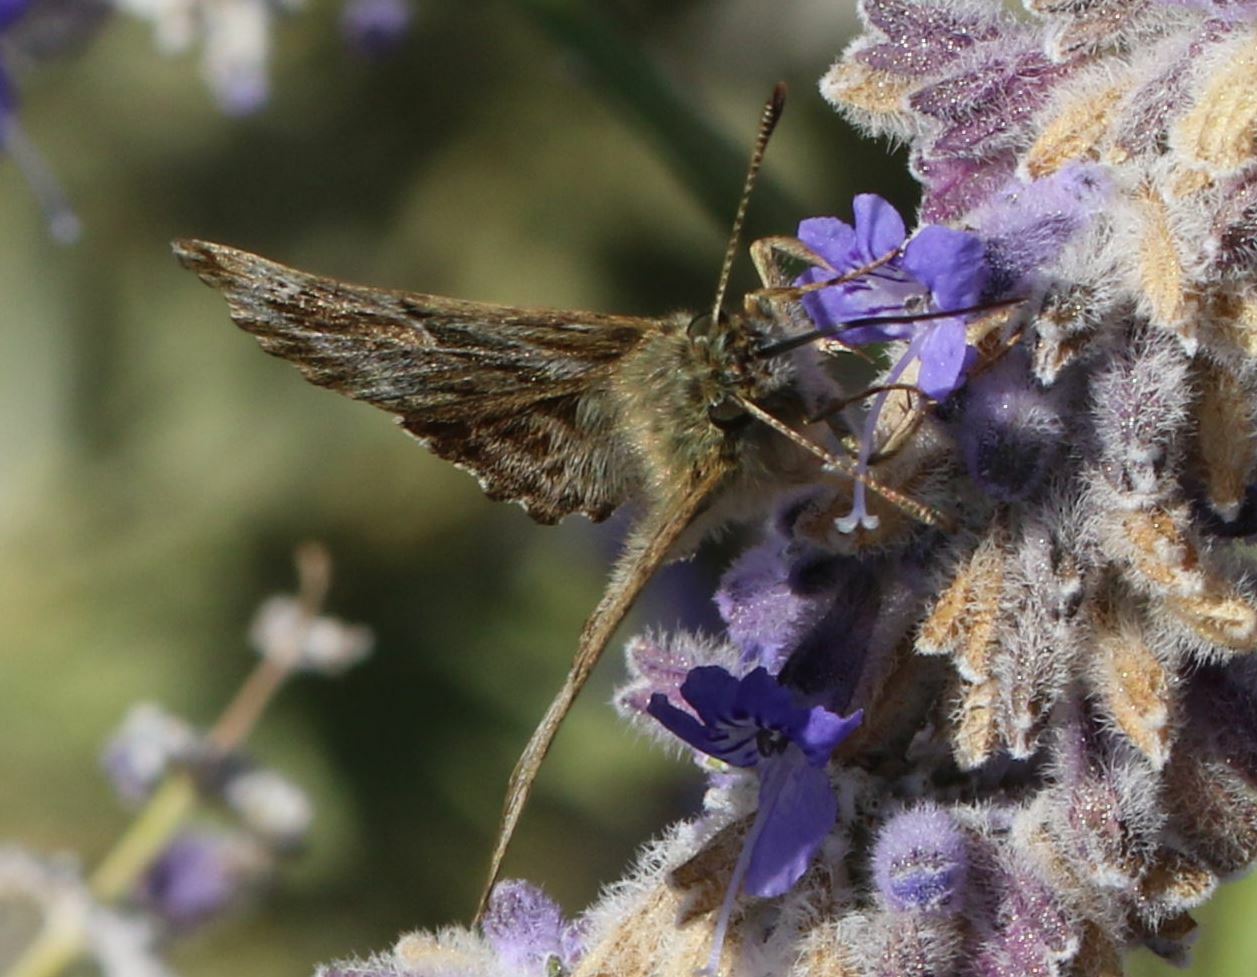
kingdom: Animalia
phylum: Arthropoda
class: Insecta
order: Lepidoptera
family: Hesperiidae
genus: Carcharodus
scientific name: Carcharodus alceae
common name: Mallow skipper
